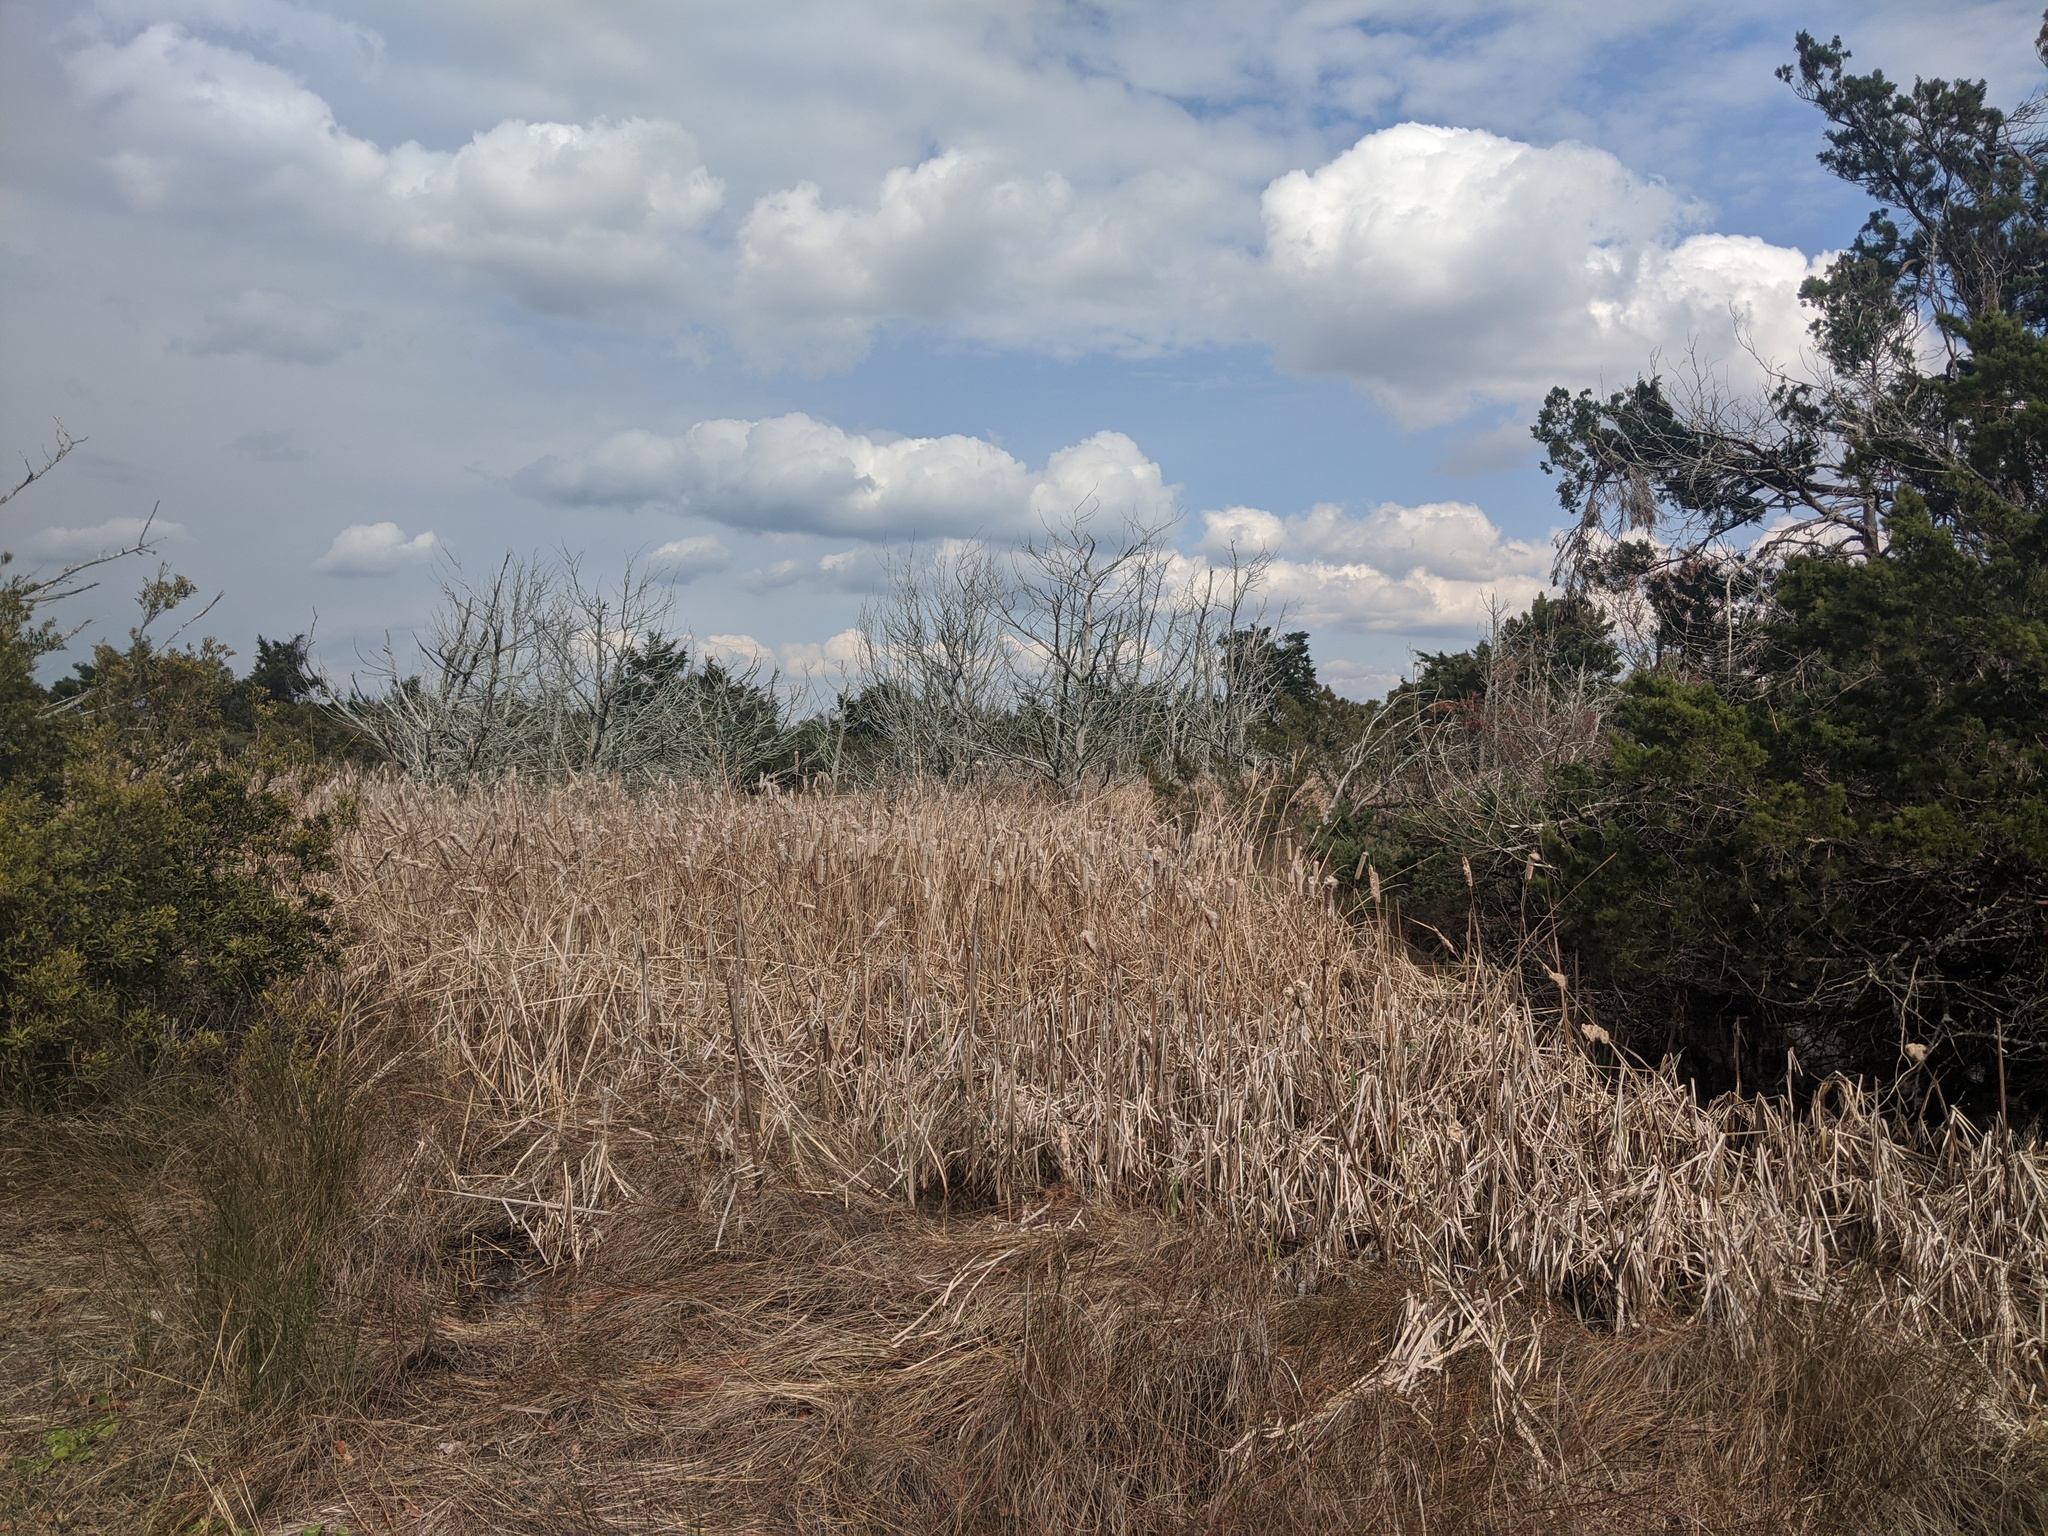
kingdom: Plantae
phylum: Tracheophyta
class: Liliopsida
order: Poales
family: Typhaceae
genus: Typha
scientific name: Typha
